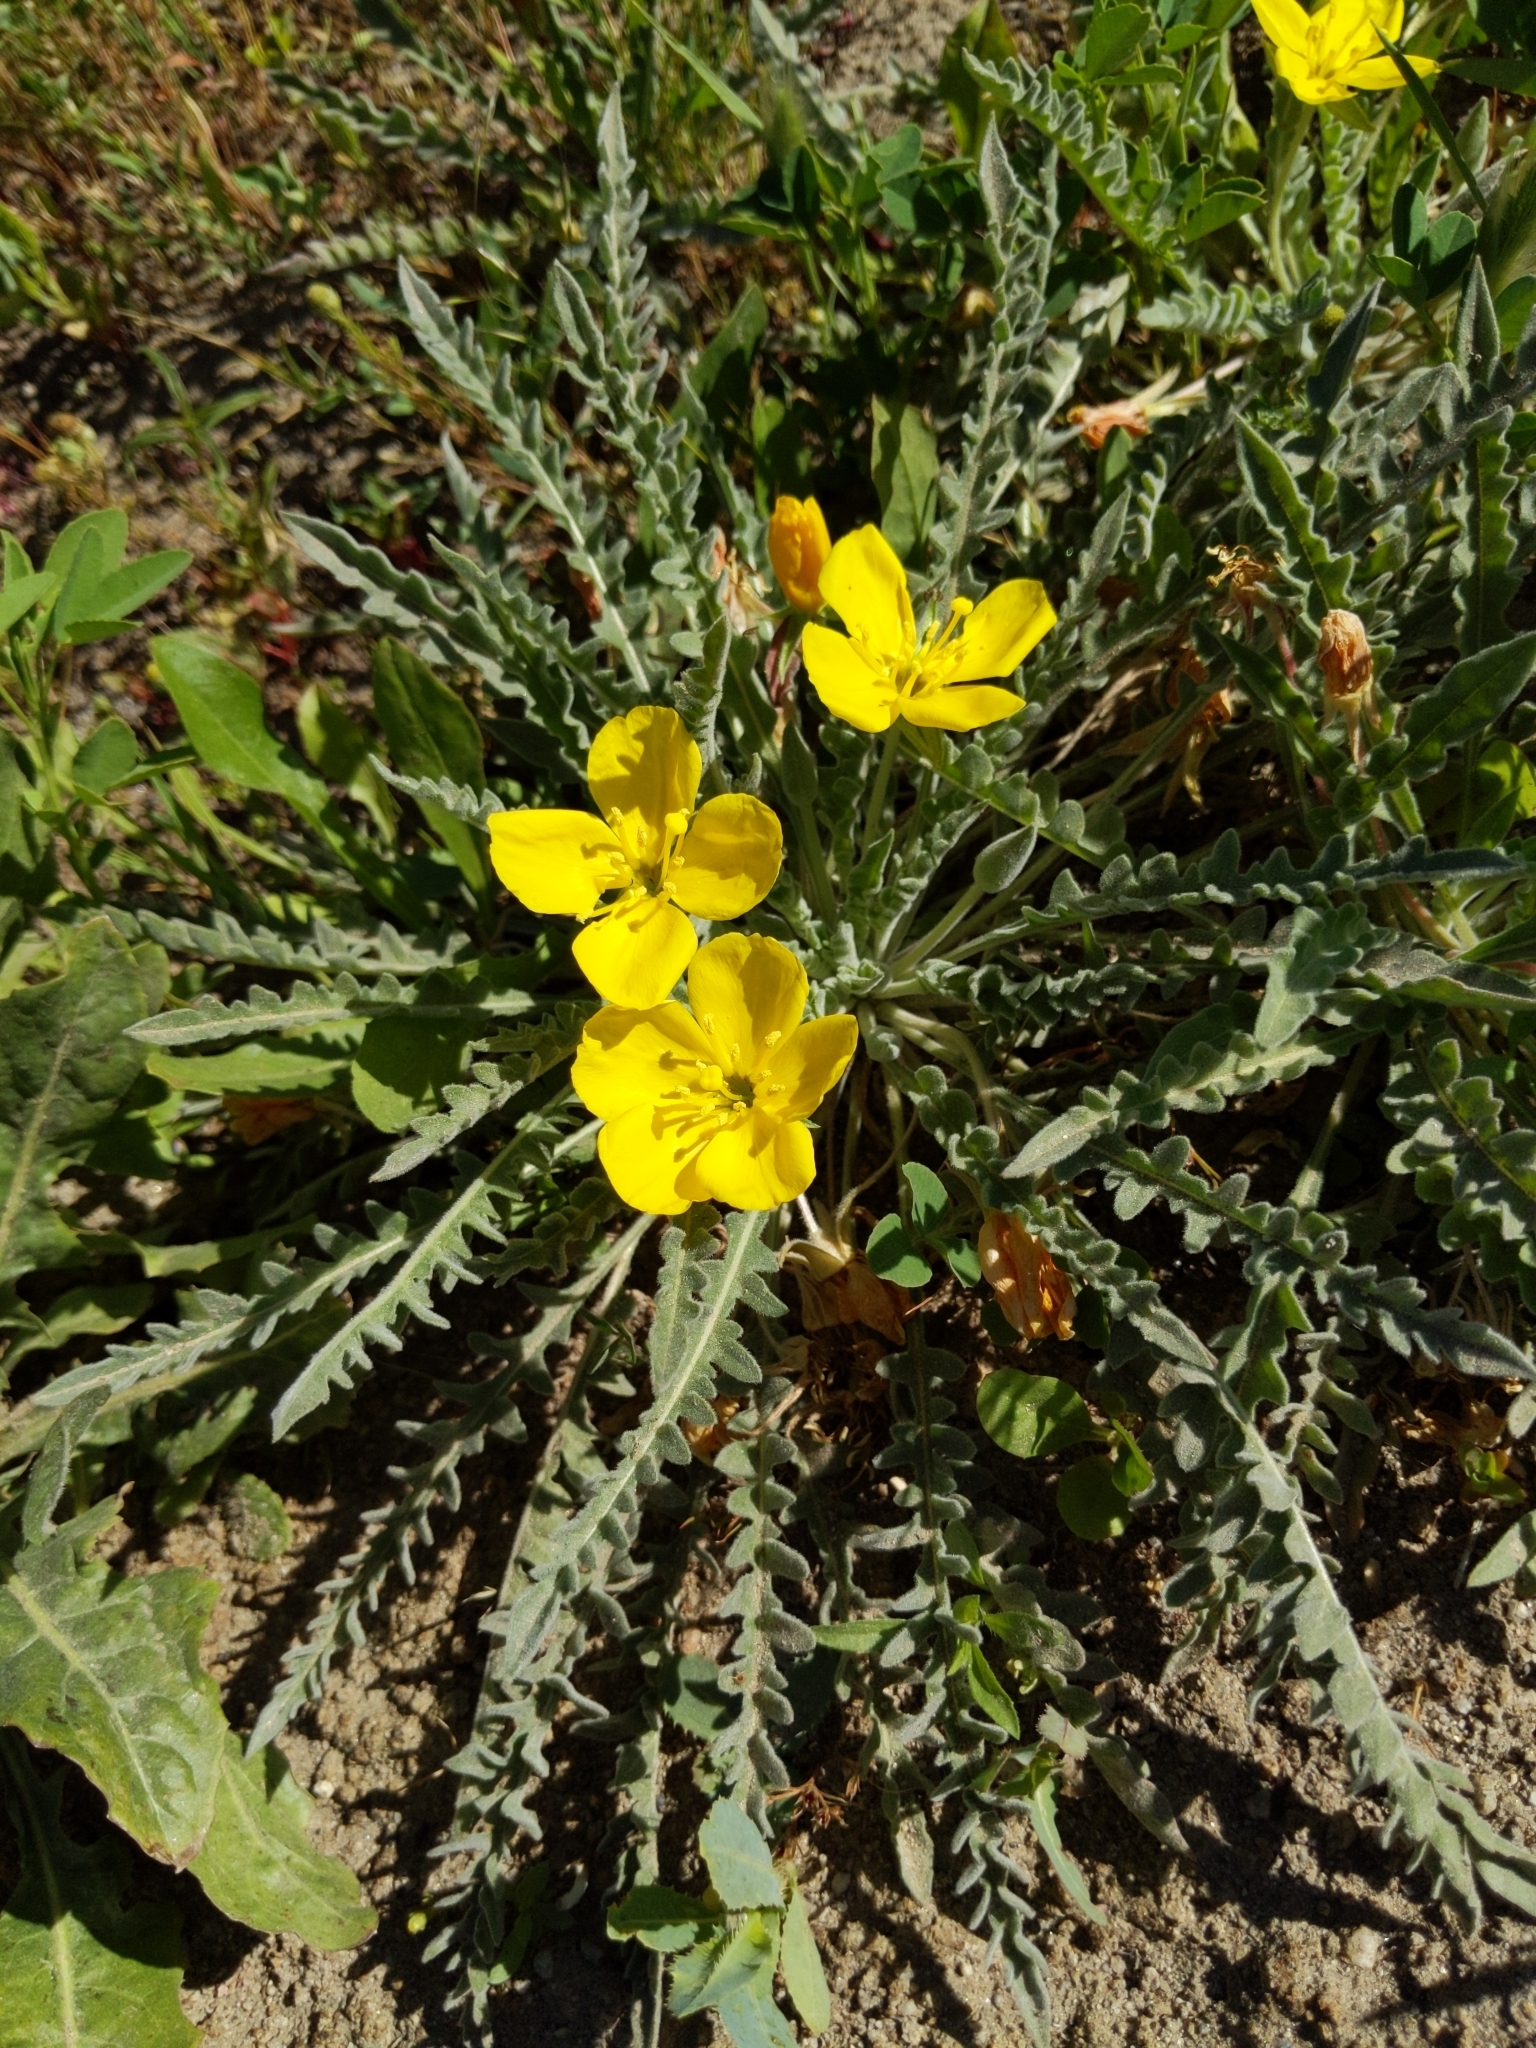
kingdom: Plantae
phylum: Tracheophyta
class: Magnoliopsida
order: Myrtales
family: Onagraceae
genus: Taraxia
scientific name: Taraxia tanacetifolia
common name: Tansyleaf evening primrose
